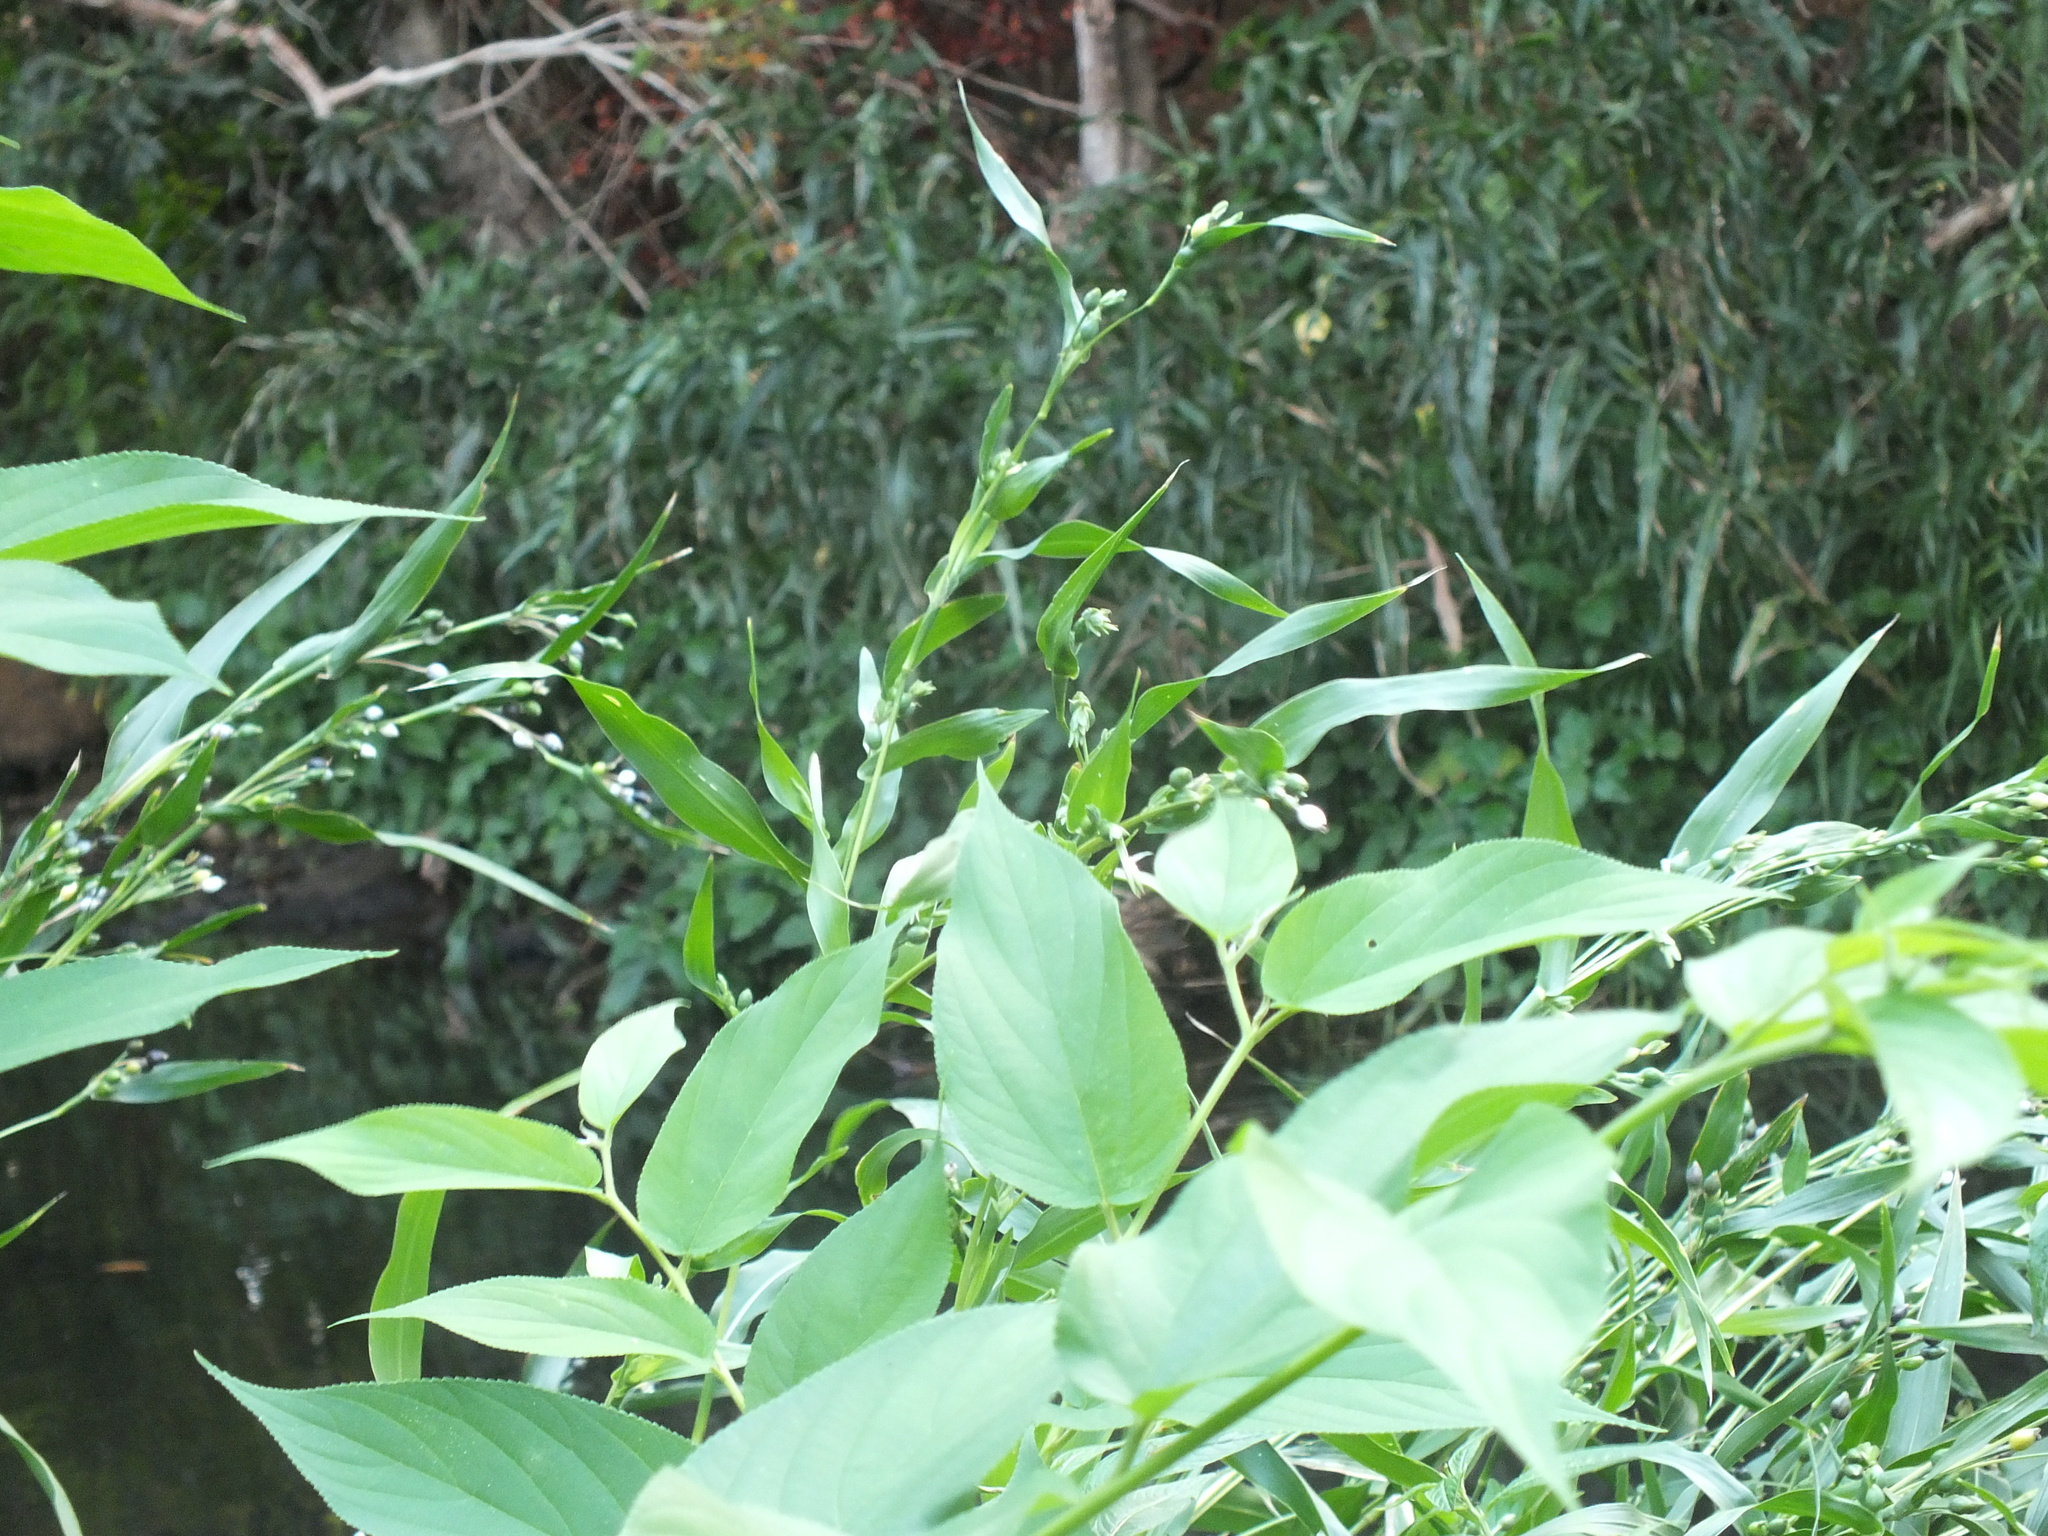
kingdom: Plantae
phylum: Tracheophyta
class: Liliopsida
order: Poales
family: Poaceae
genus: Coix
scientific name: Coix lacryma-jobi
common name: Job's tears
